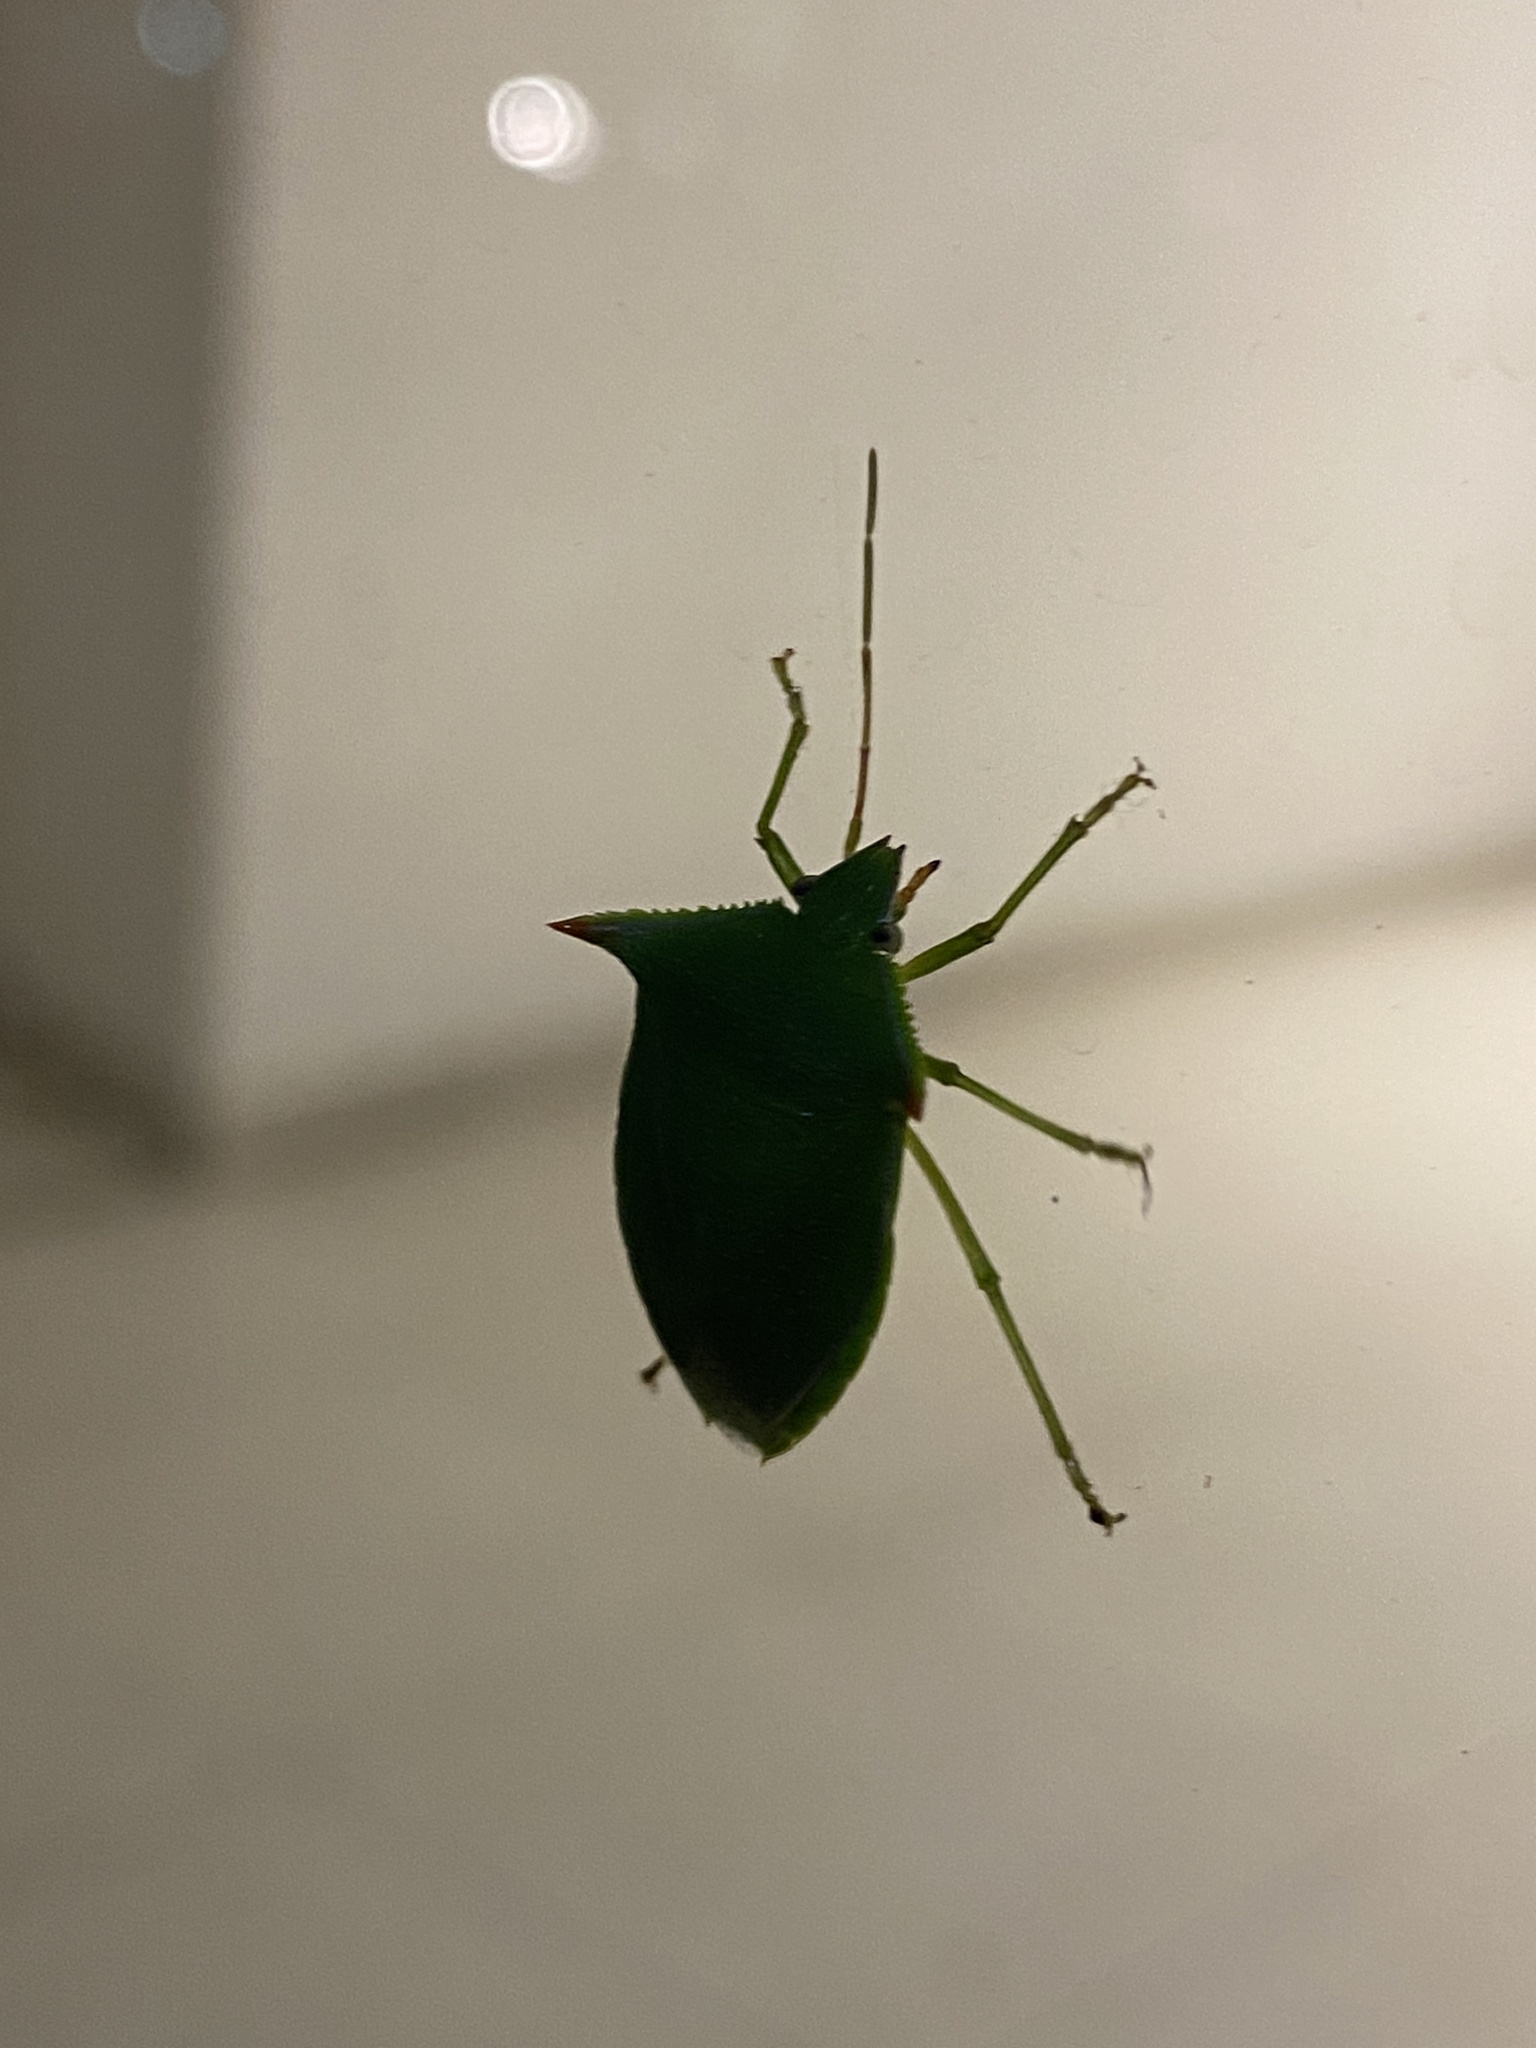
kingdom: Animalia
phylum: Arthropoda
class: Insecta
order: Hemiptera
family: Pentatomidae
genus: Loxa
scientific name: Loxa deducta
